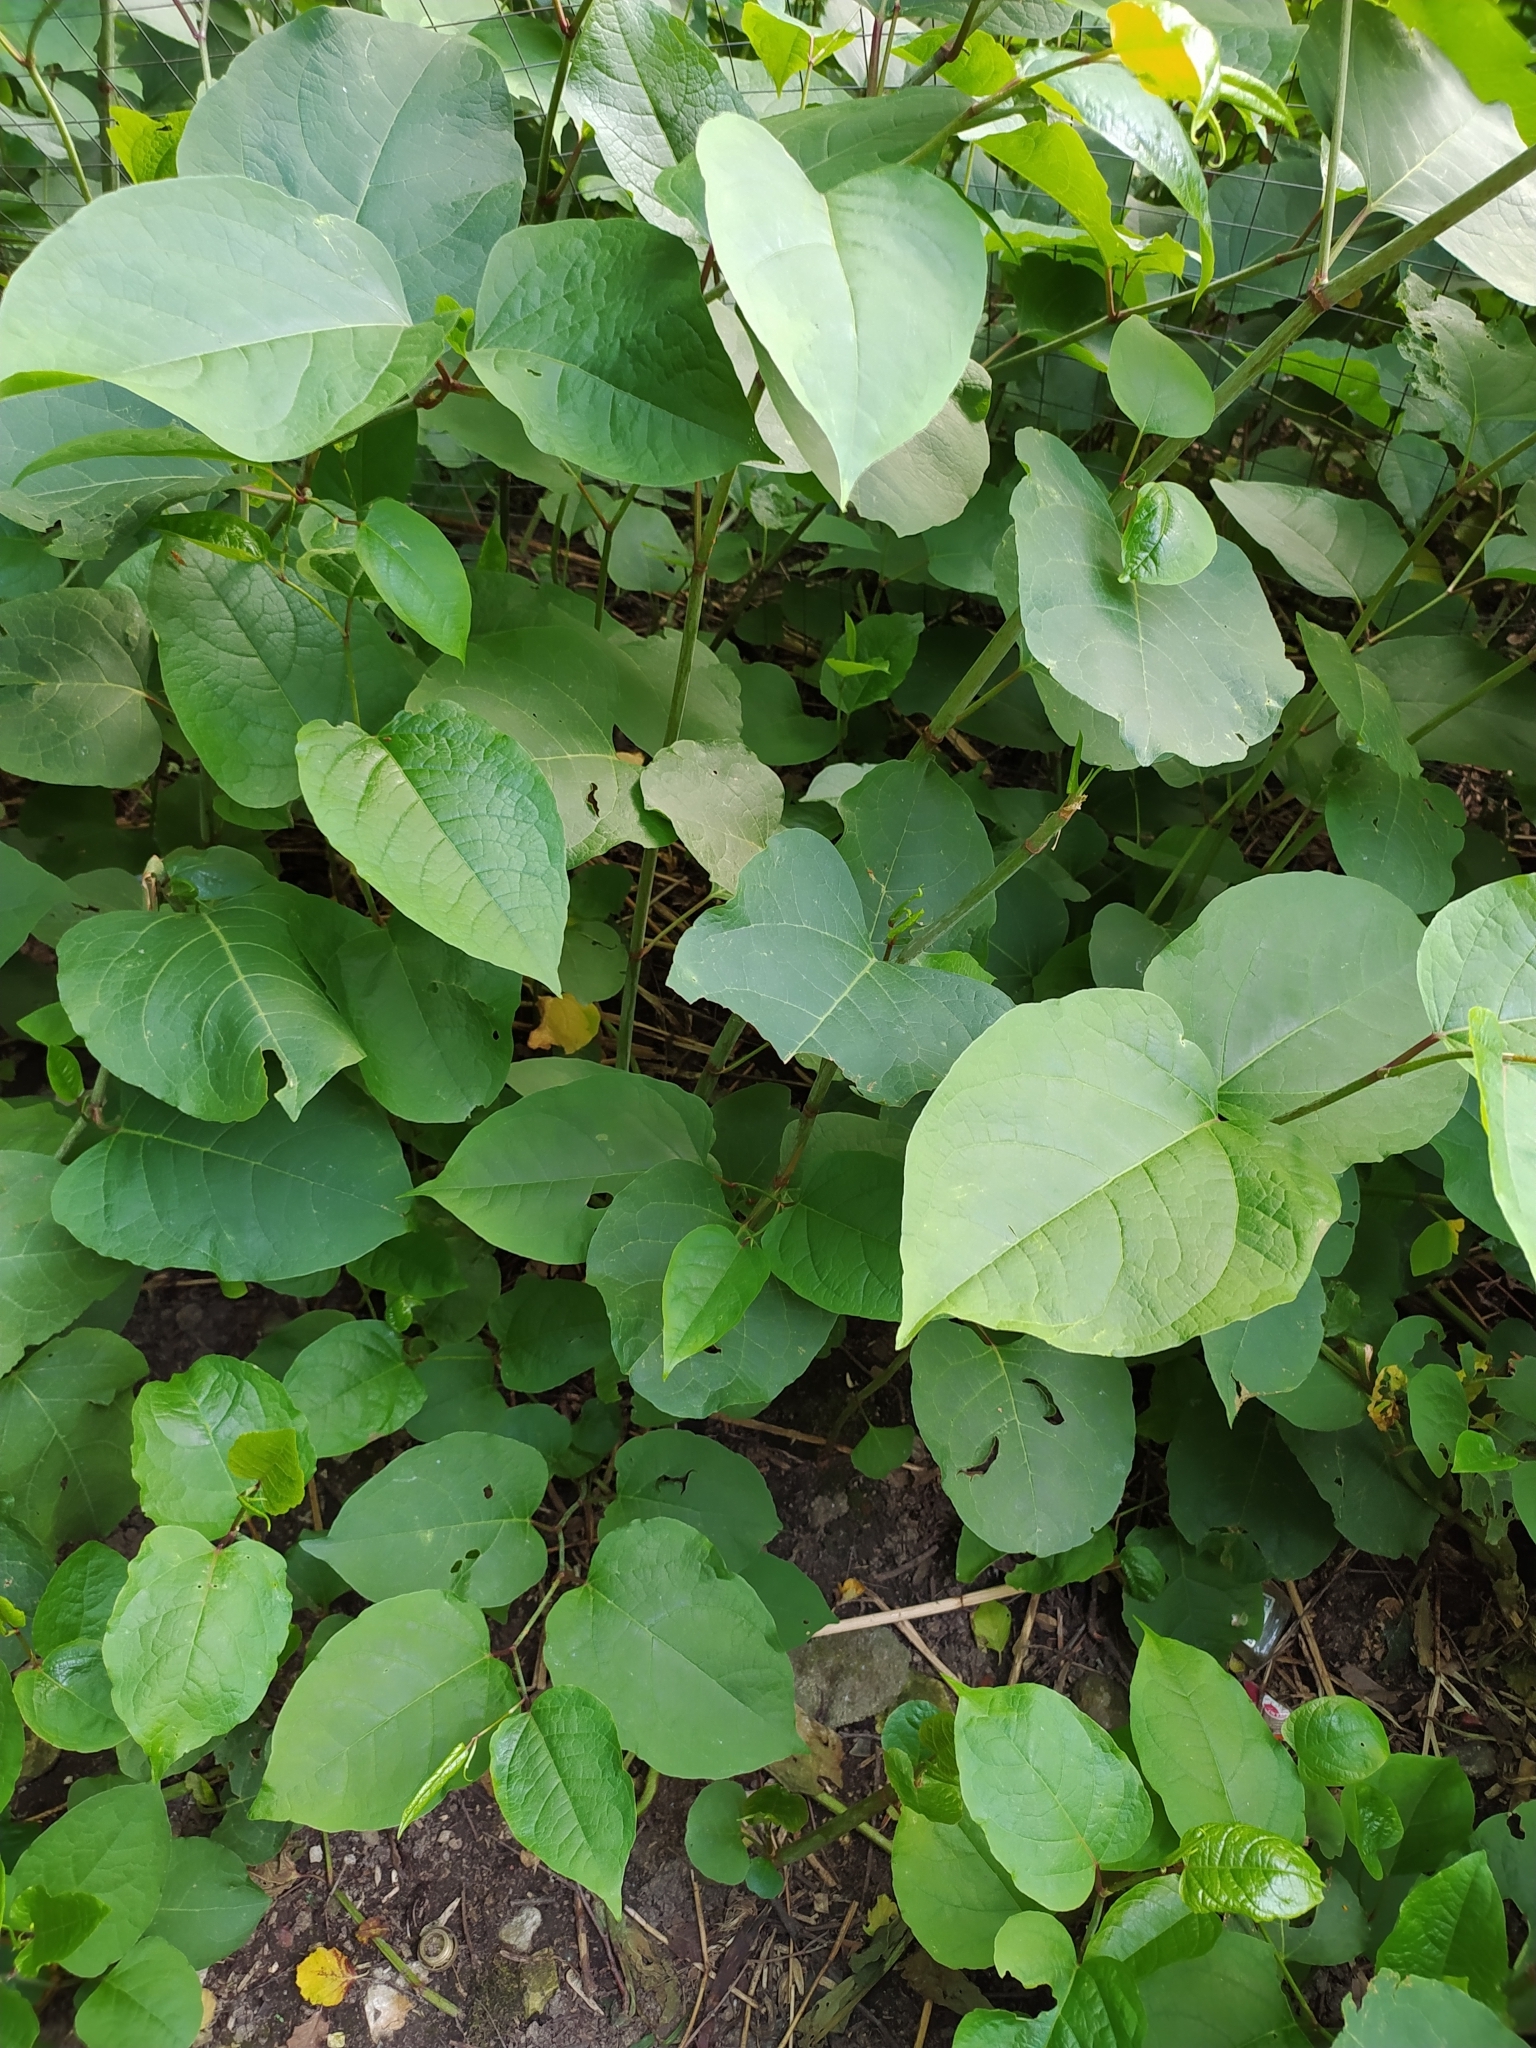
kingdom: Plantae
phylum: Tracheophyta
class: Magnoliopsida
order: Caryophyllales
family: Polygonaceae
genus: Reynoutria
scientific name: Reynoutria bohemica
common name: Bohemian knotweed
